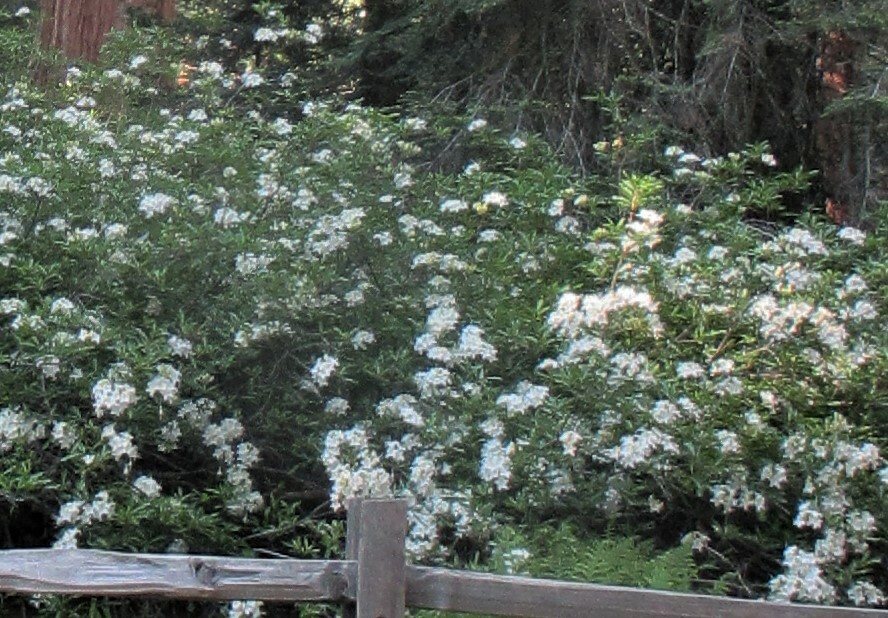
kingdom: Plantae
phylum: Tracheophyta
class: Magnoliopsida
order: Ericales
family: Ericaceae
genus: Rhododendron
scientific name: Rhododendron occidentale
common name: Western azalea
